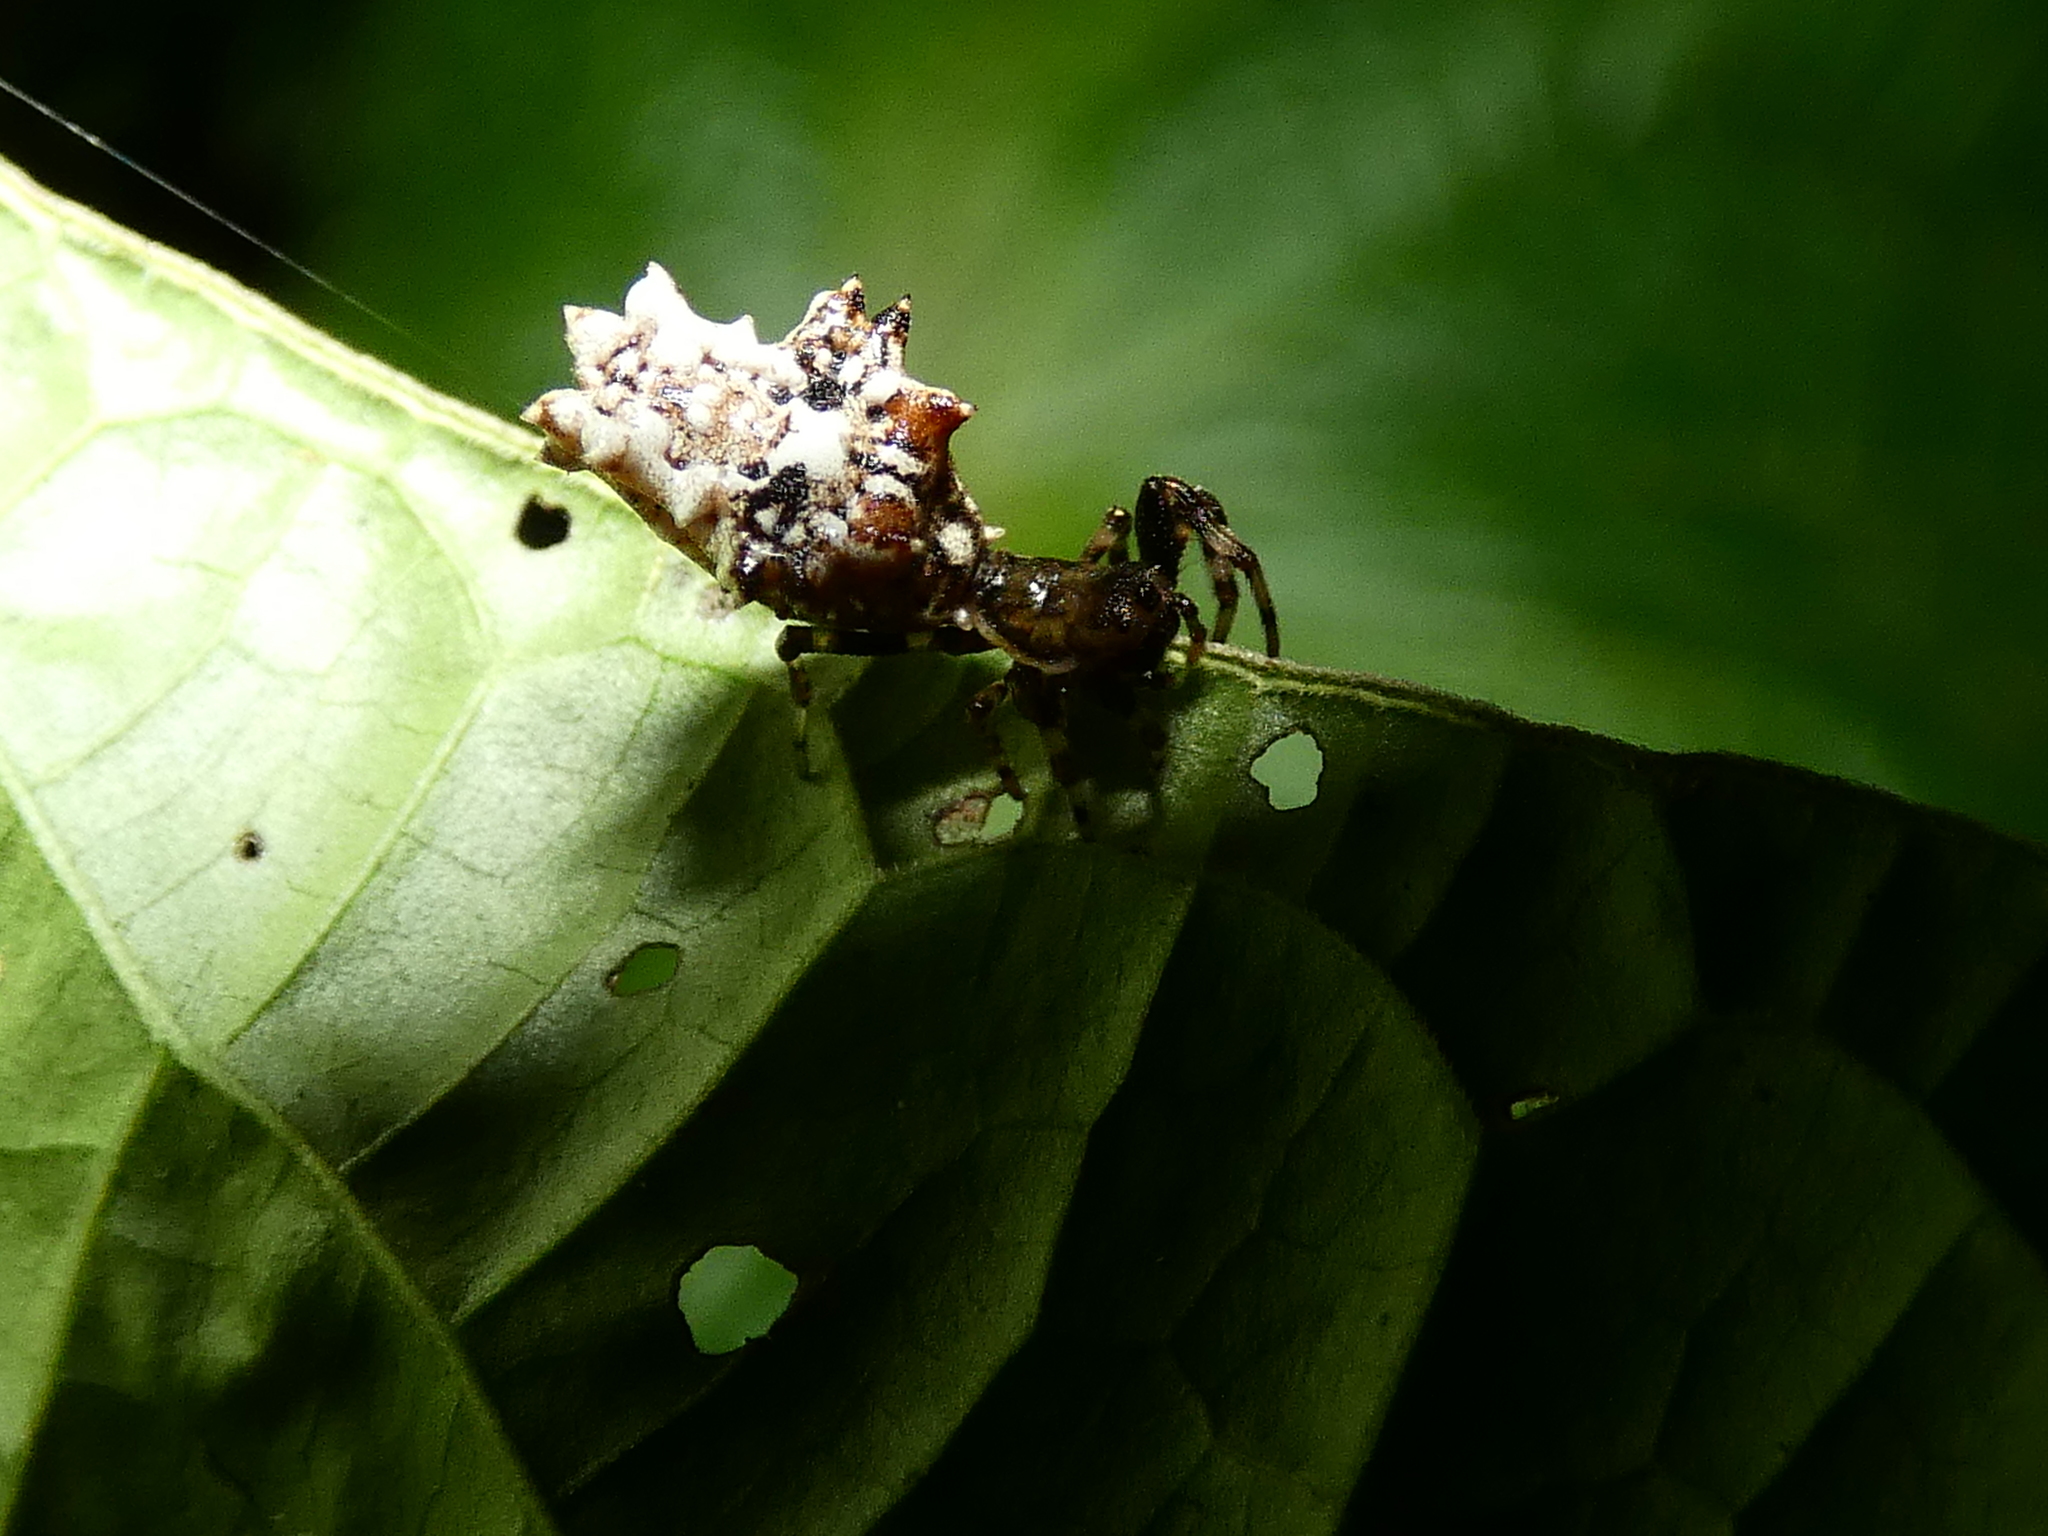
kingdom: Animalia
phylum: Arthropoda
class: Arachnida
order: Araneae
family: Araneidae
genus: Micrathena
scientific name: Micrathena horrida
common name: Orb weavers
